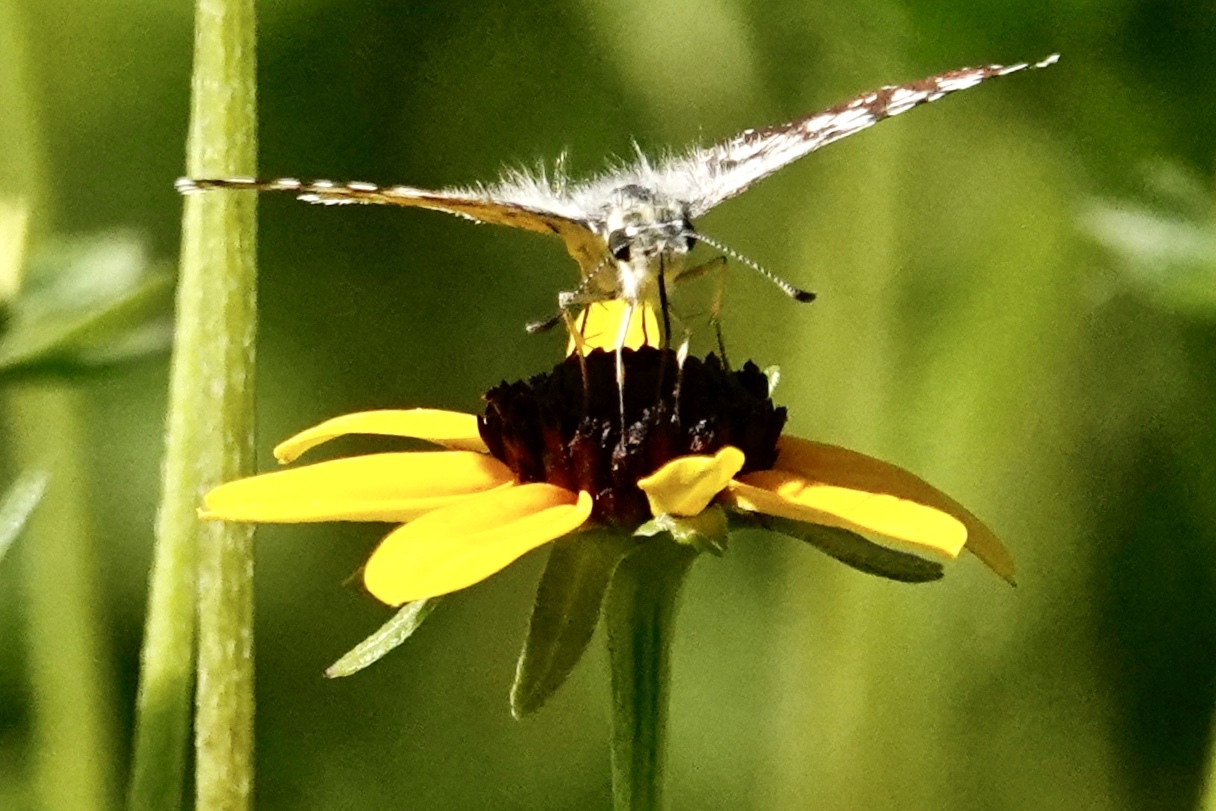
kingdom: Animalia
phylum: Arthropoda
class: Insecta
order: Lepidoptera
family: Hesperiidae
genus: Burnsius
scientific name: Burnsius communis
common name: Common checkered-skipper
